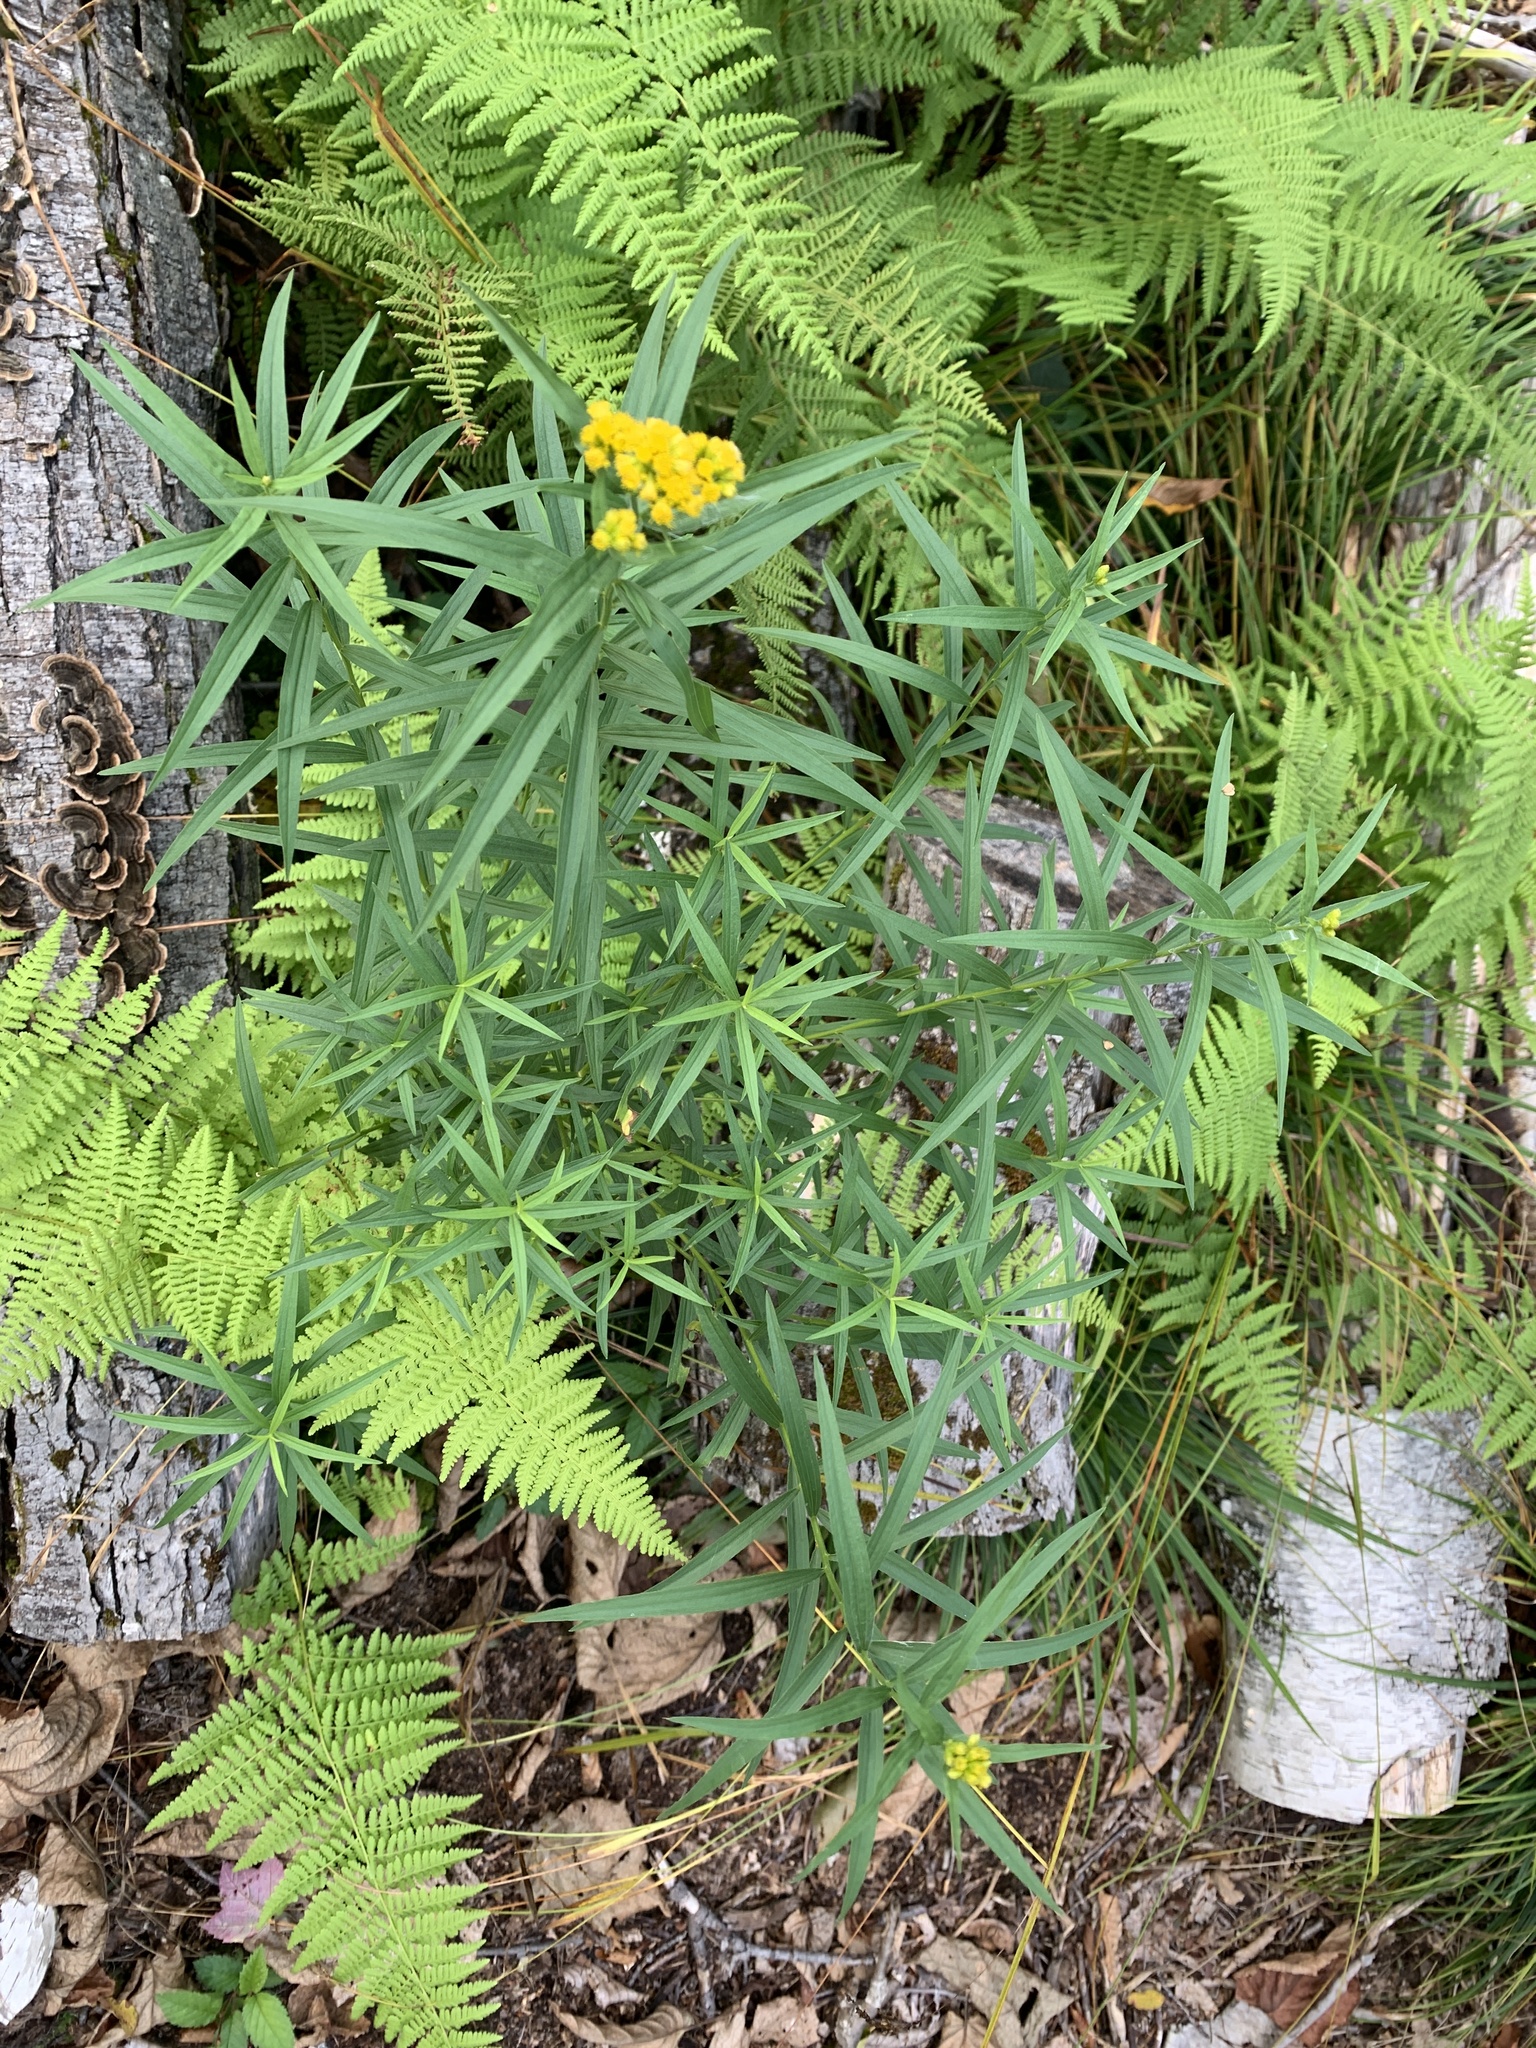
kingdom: Plantae
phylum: Tracheophyta
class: Magnoliopsida
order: Asterales
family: Asteraceae
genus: Euthamia
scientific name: Euthamia graminifolia
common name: Common goldentop
